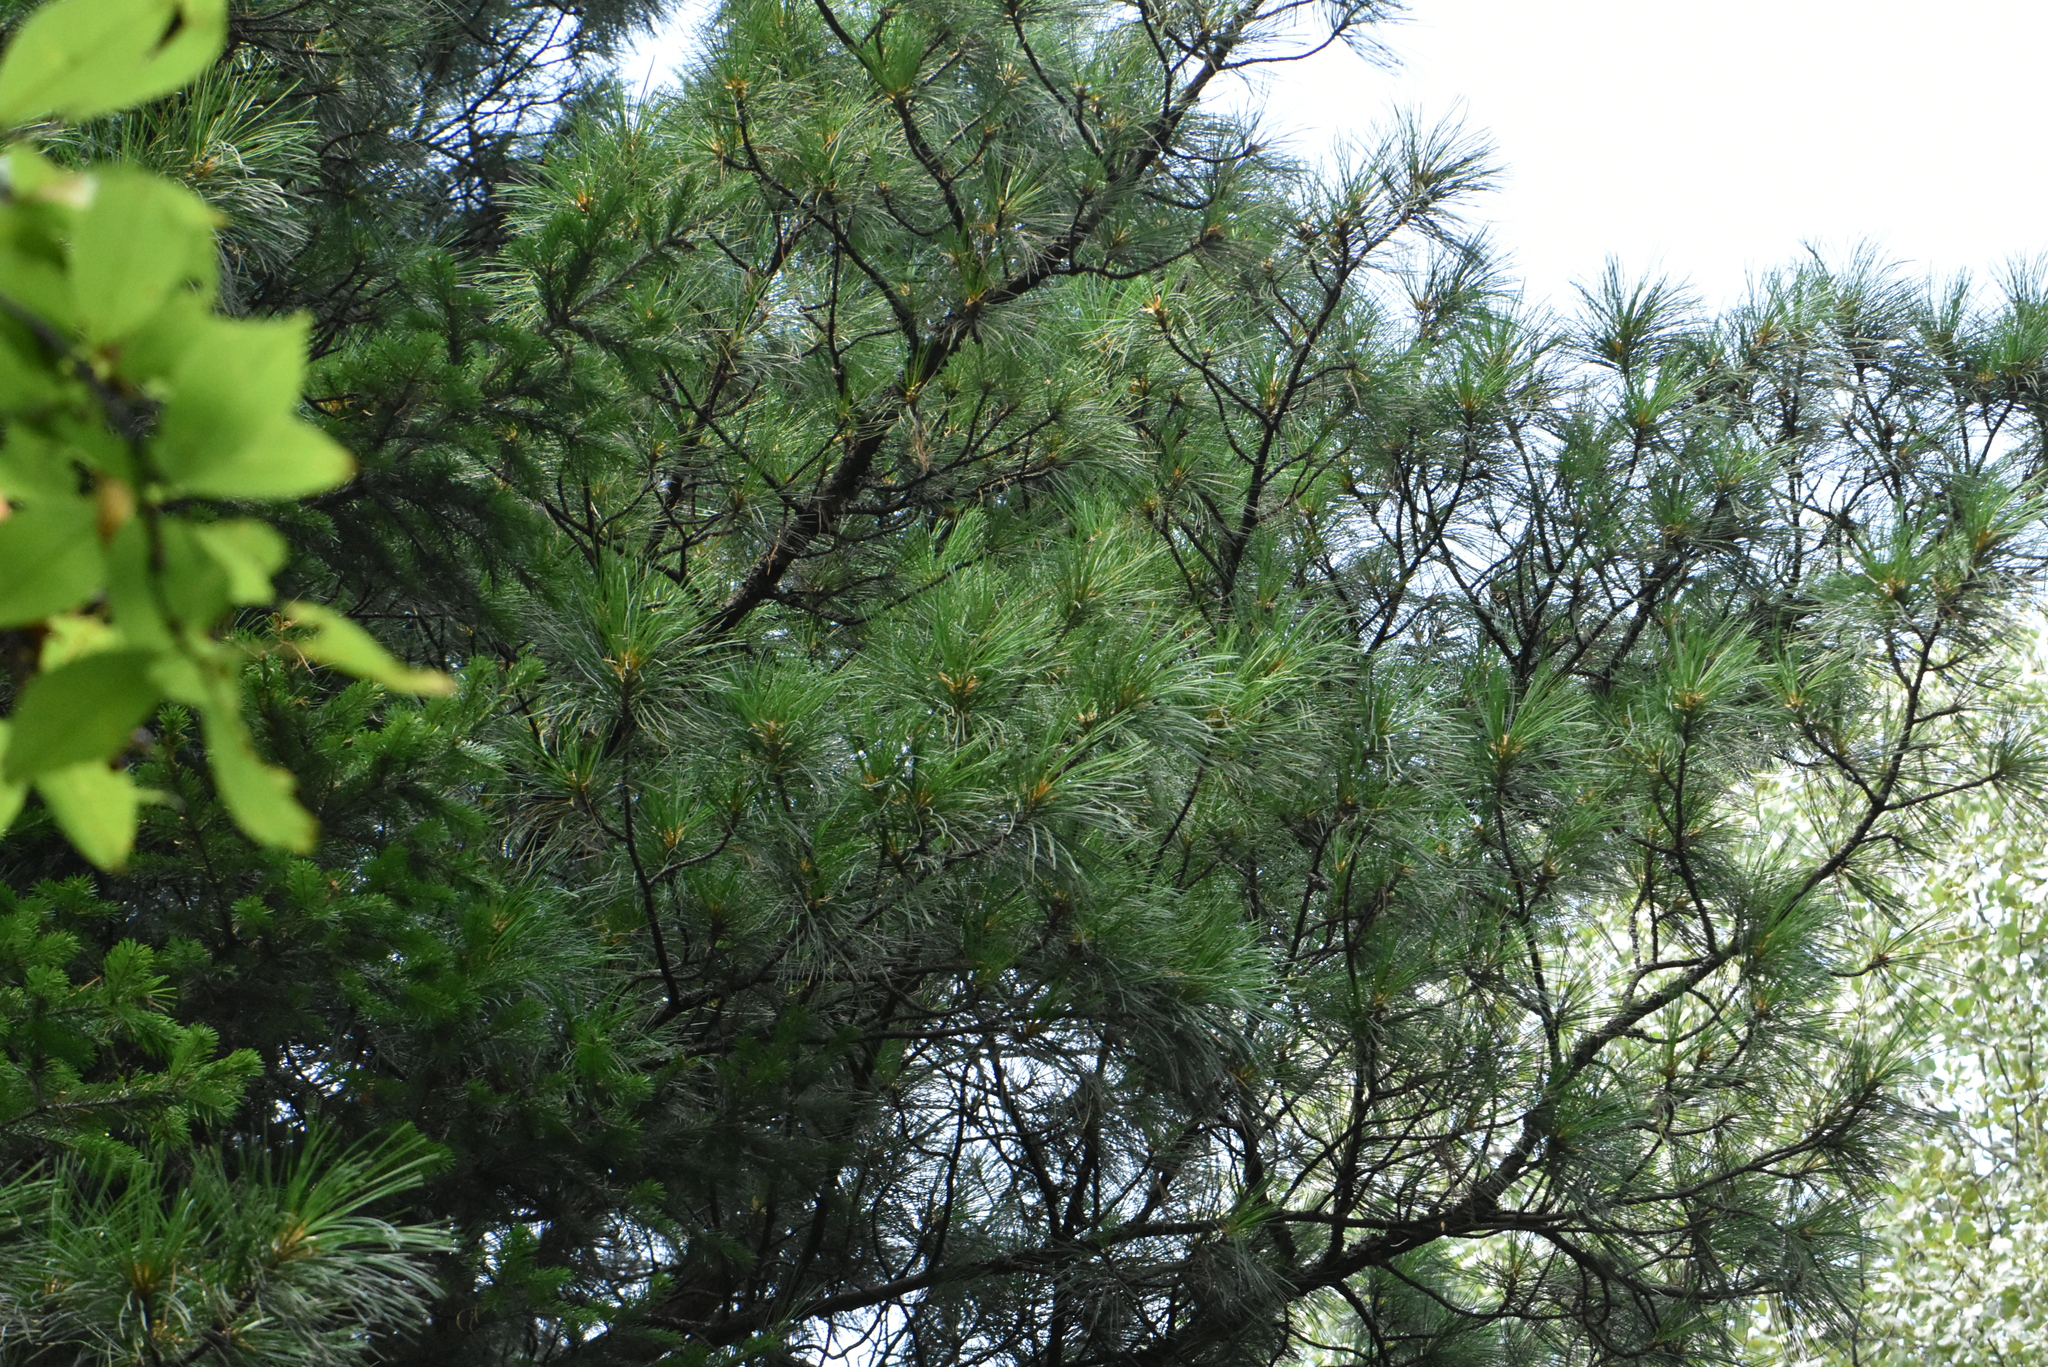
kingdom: Plantae
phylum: Tracheophyta
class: Pinopsida
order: Pinales
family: Pinaceae
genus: Pinus
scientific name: Pinus sibirica
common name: Siberian pine
